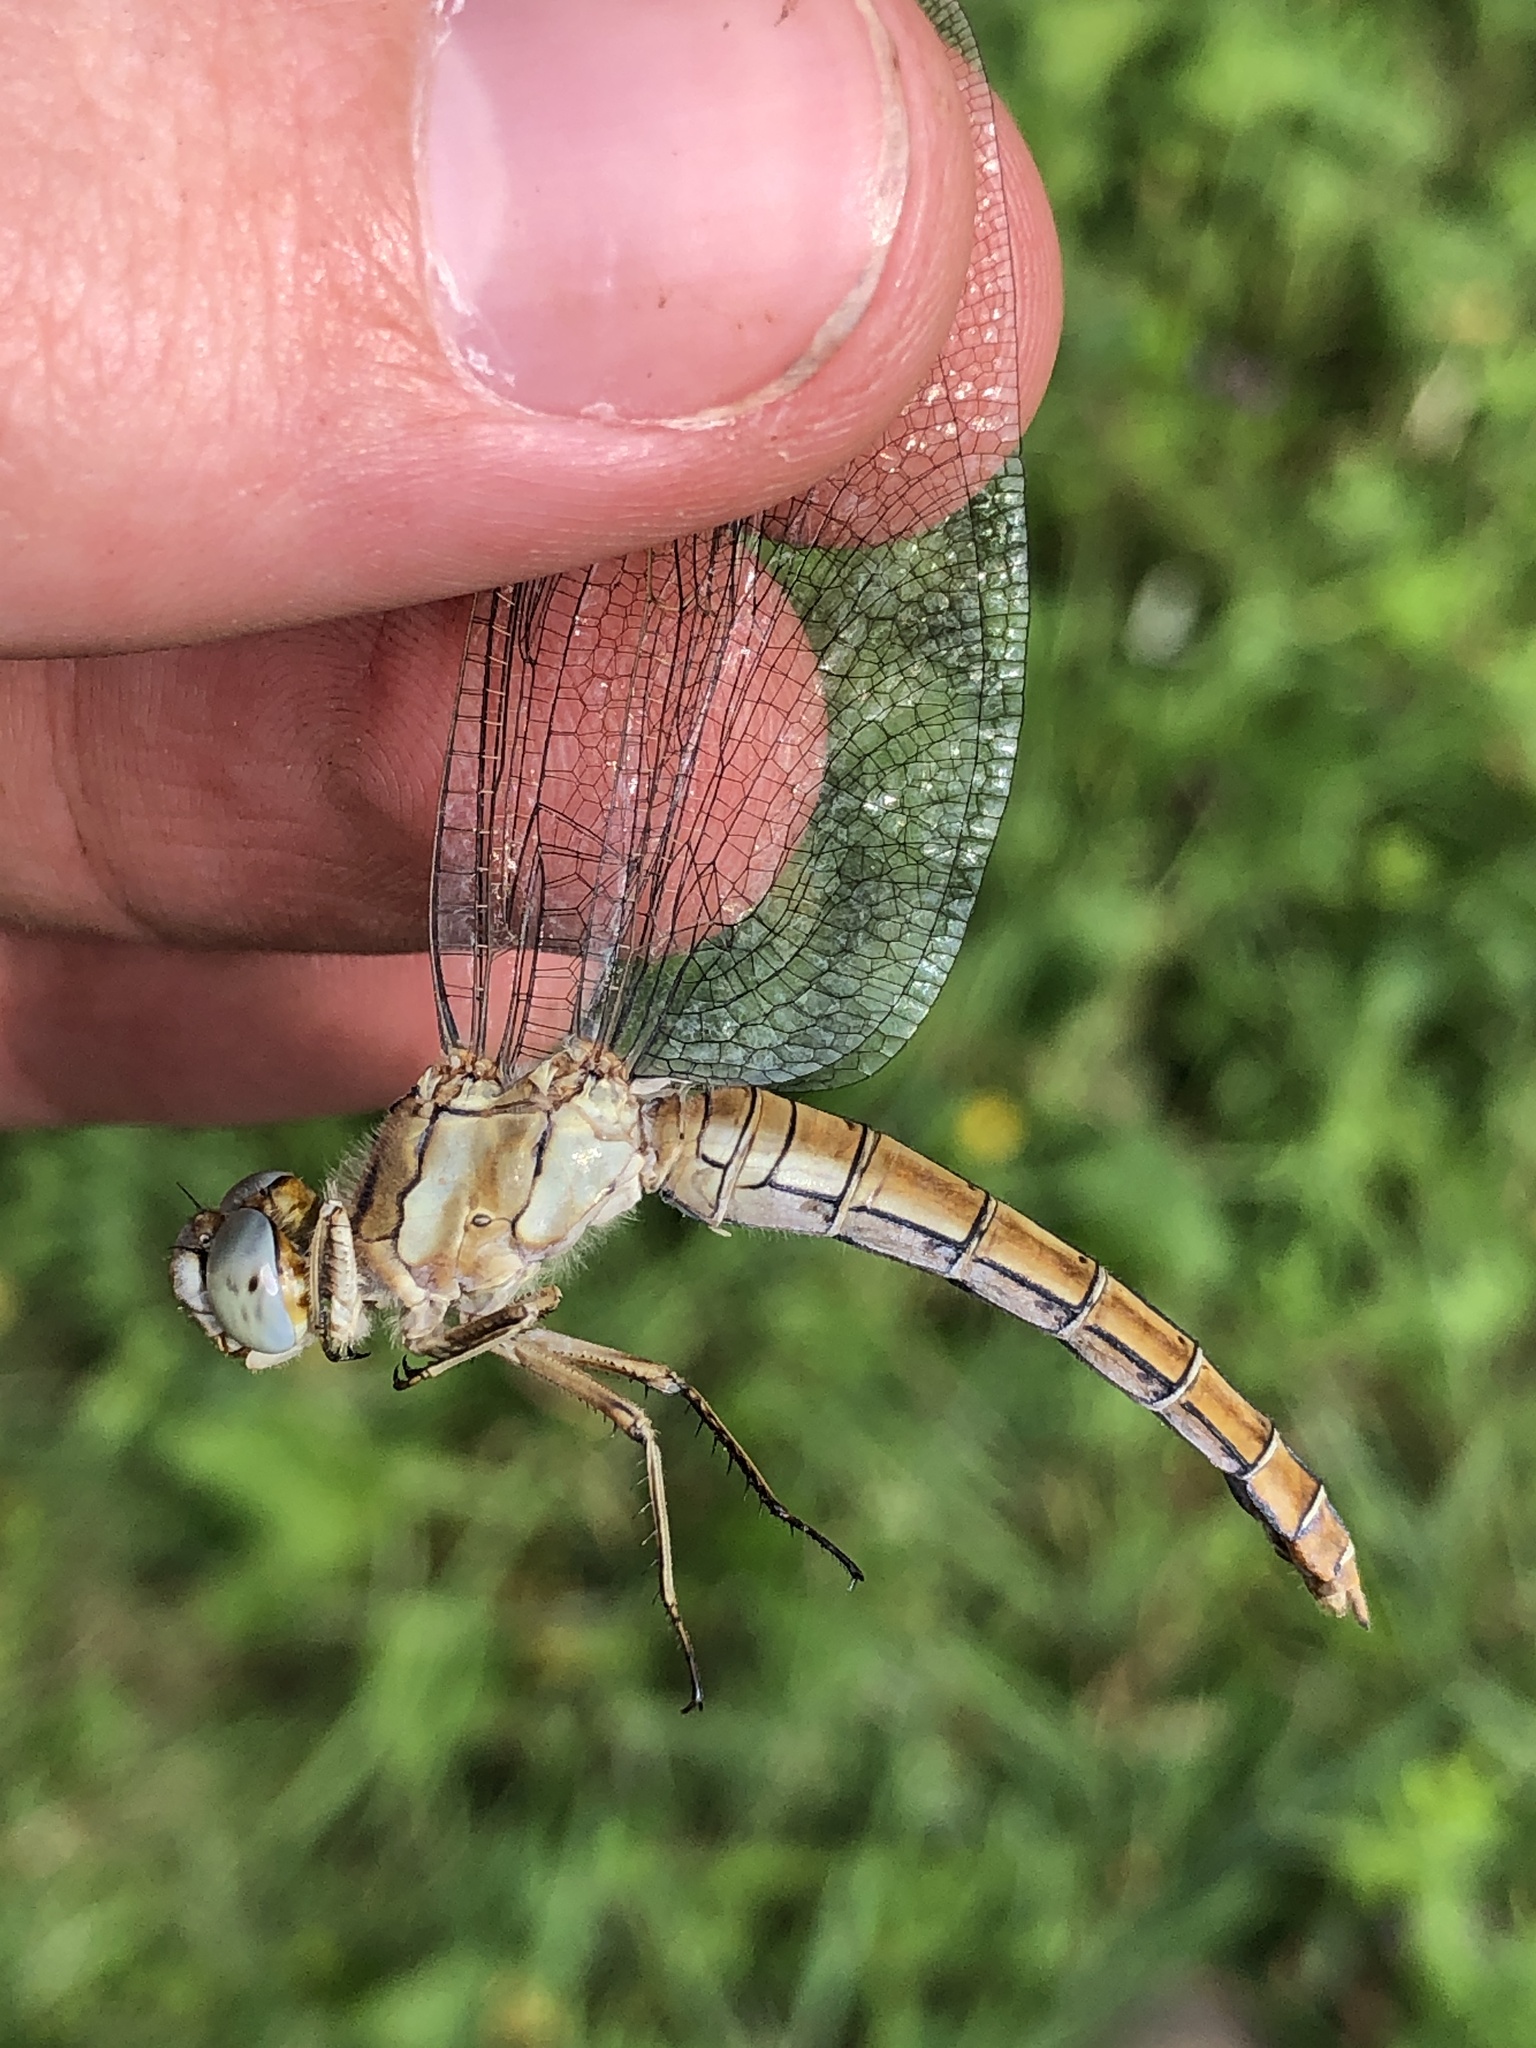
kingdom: Animalia
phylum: Arthropoda
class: Insecta
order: Odonata
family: Libellulidae
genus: Orthetrum
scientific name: Orthetrum brunneum
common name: Southern skimmer
